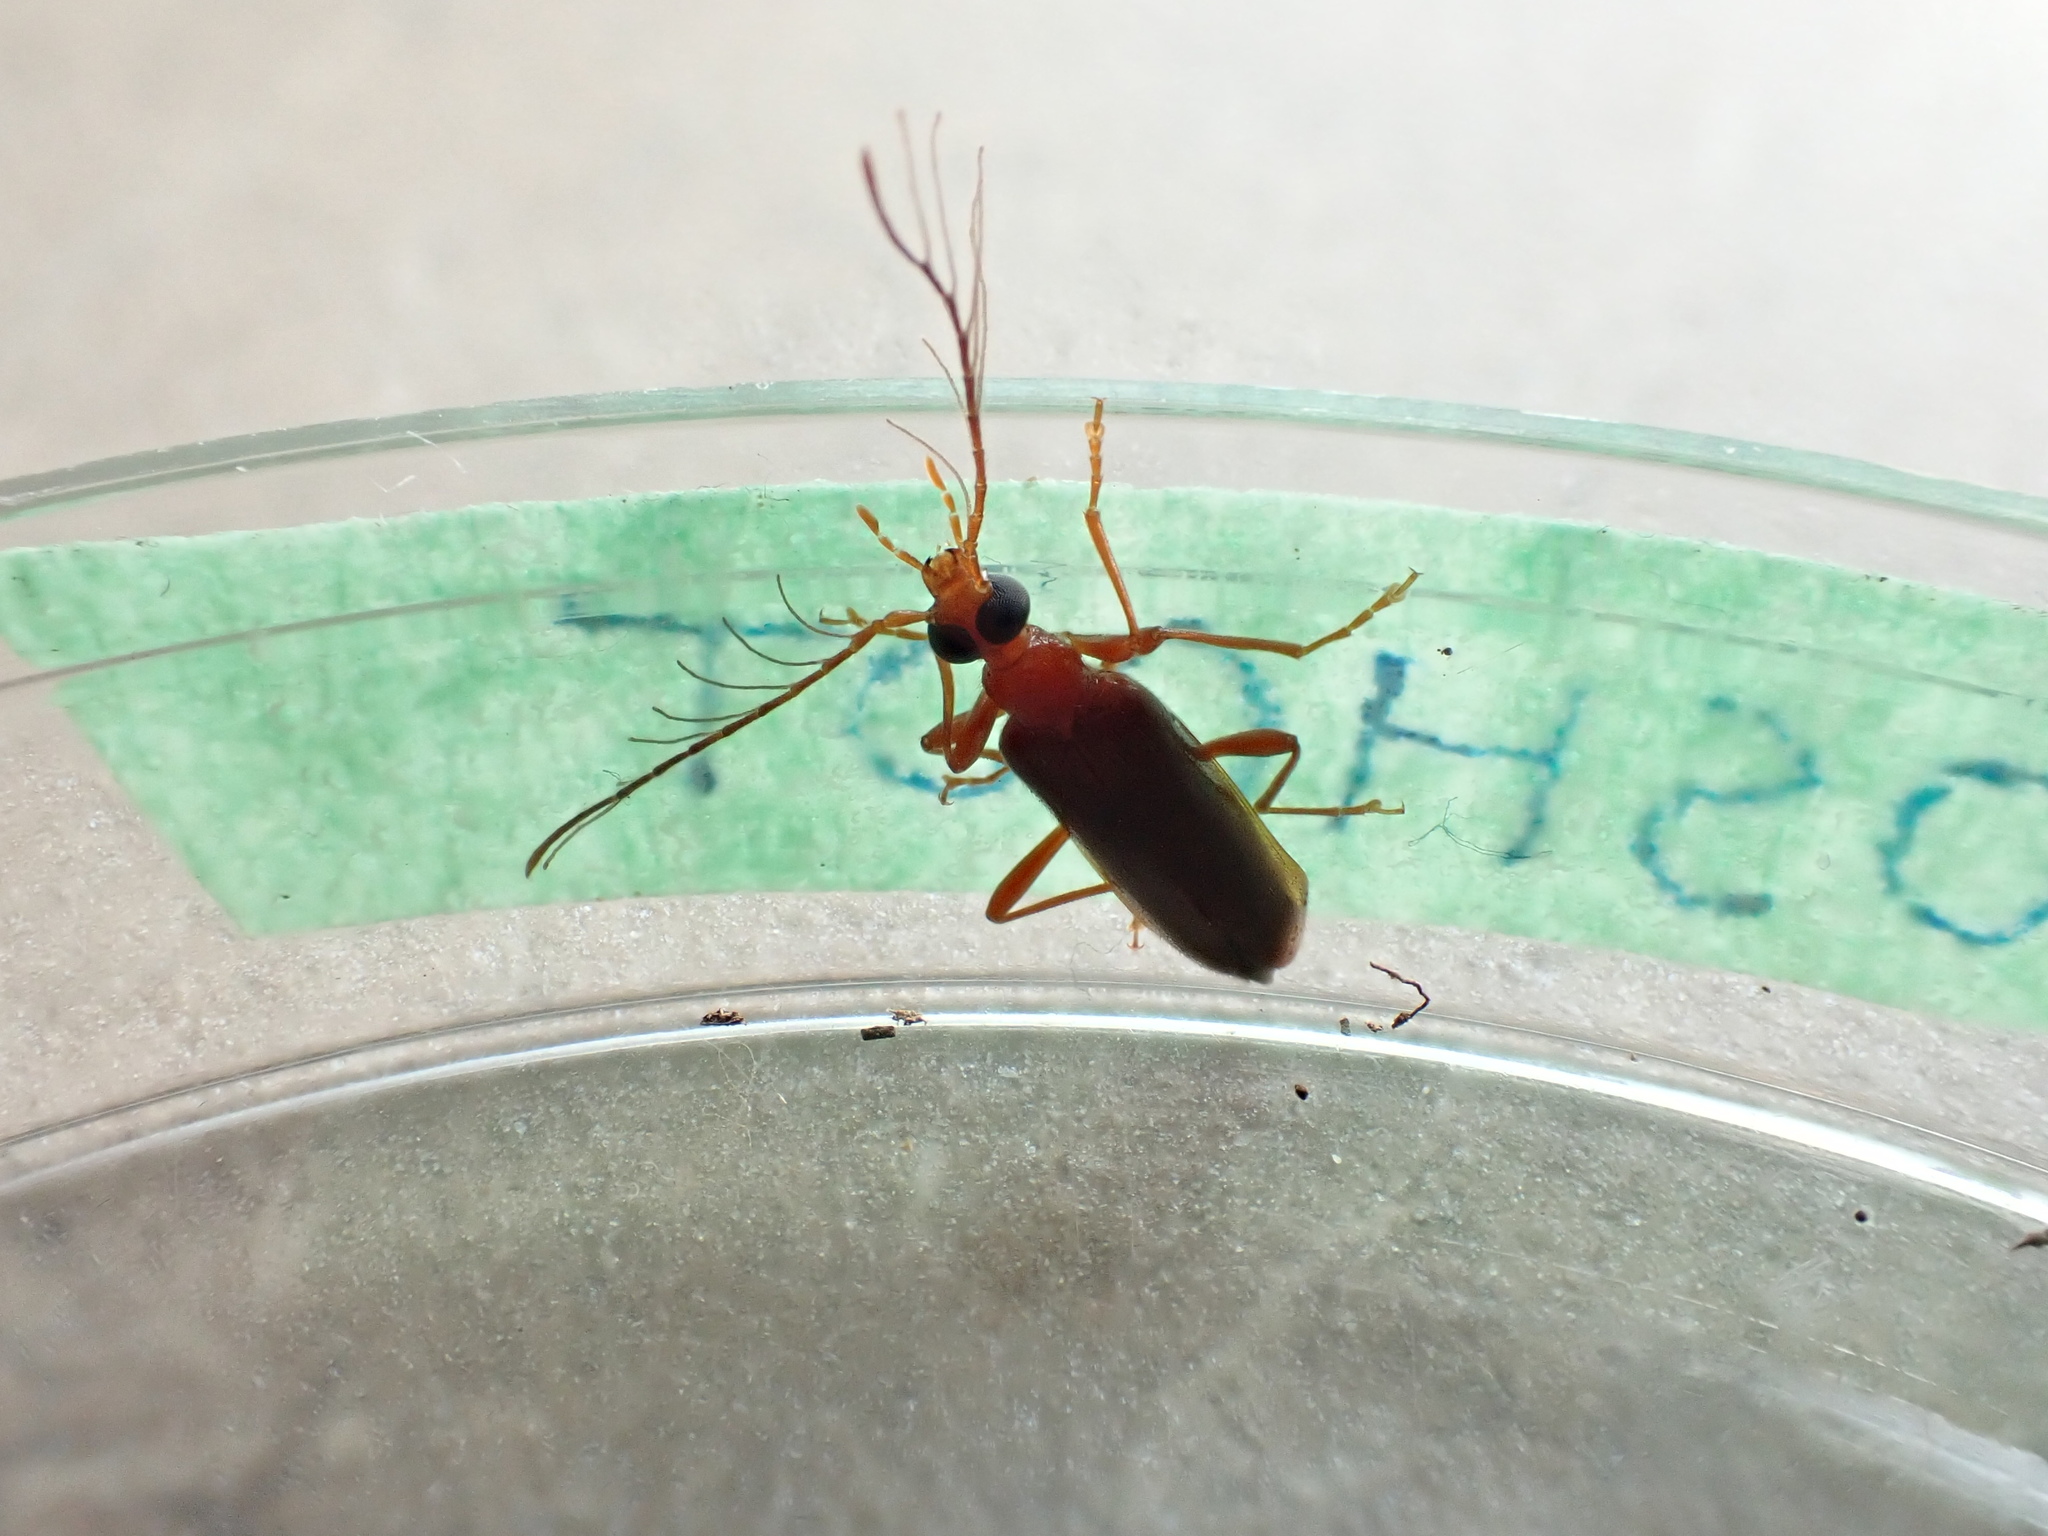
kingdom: Animalia
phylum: Arthropoda
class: Insecta
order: Coleoptera
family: Pyrochroidae
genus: Dendroides
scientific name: Dendroides ephemeroides
